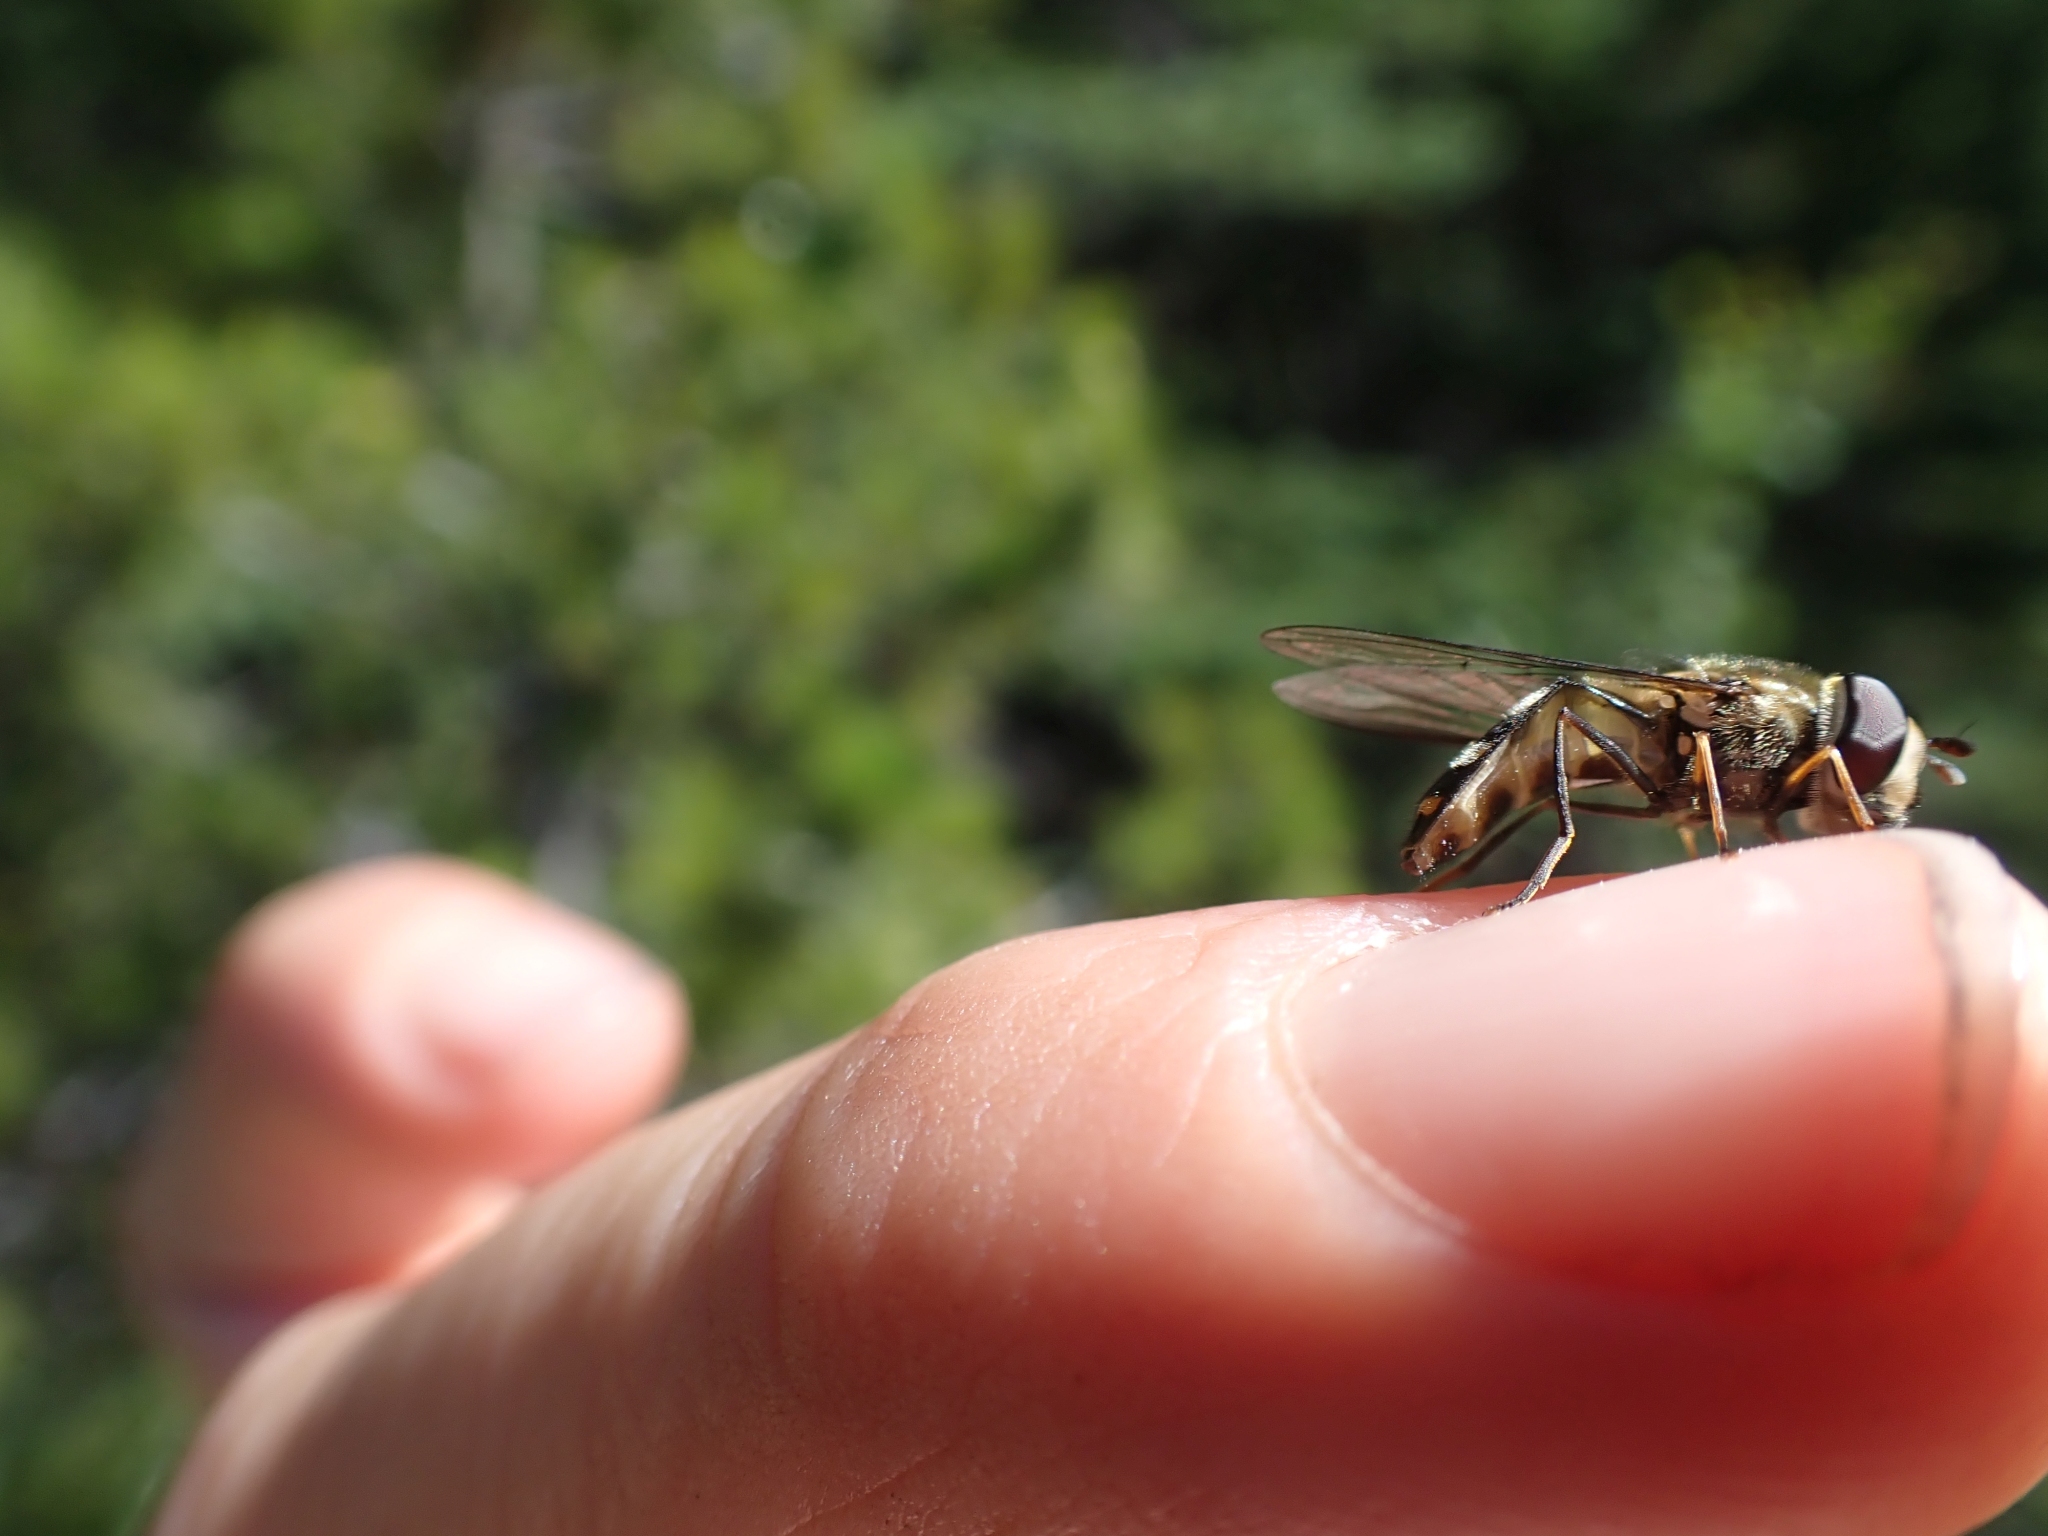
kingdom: Animalia
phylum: Arthropoda
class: Insecta
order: Diptera
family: Syrphidae
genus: Lapposyrphus
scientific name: Lapposyrphus lapponicus
